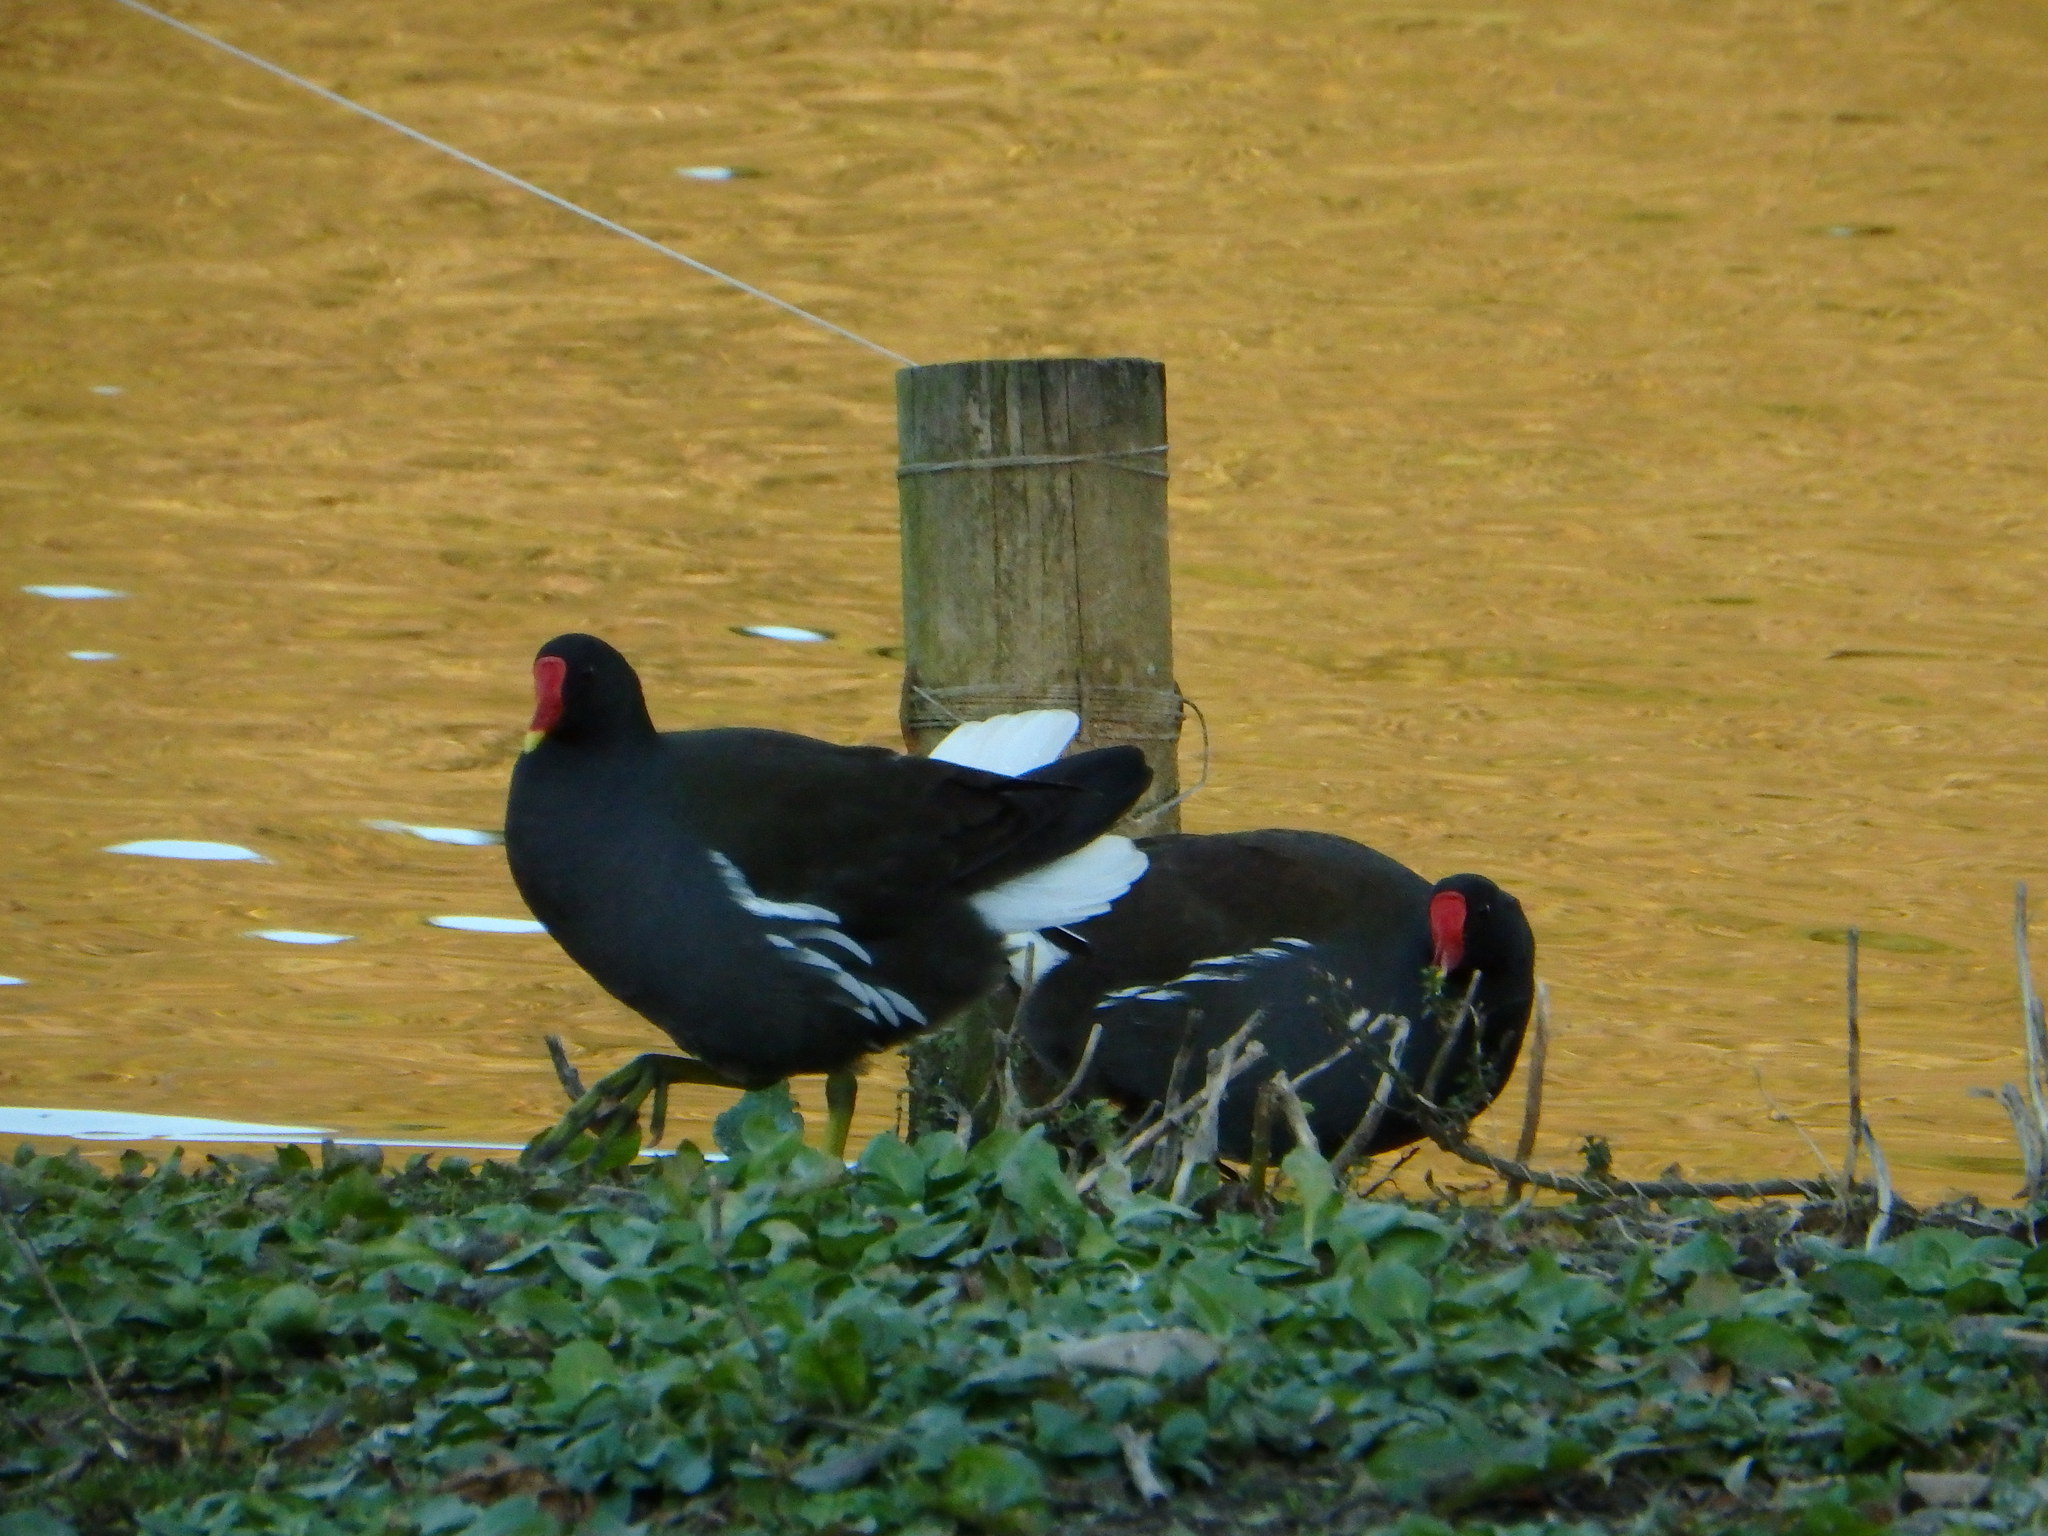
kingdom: Animalia
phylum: Chordata
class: Aves
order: Gruiformes
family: Rallidae
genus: Gallinula
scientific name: Gallinula chloropus
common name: Common moorhen
